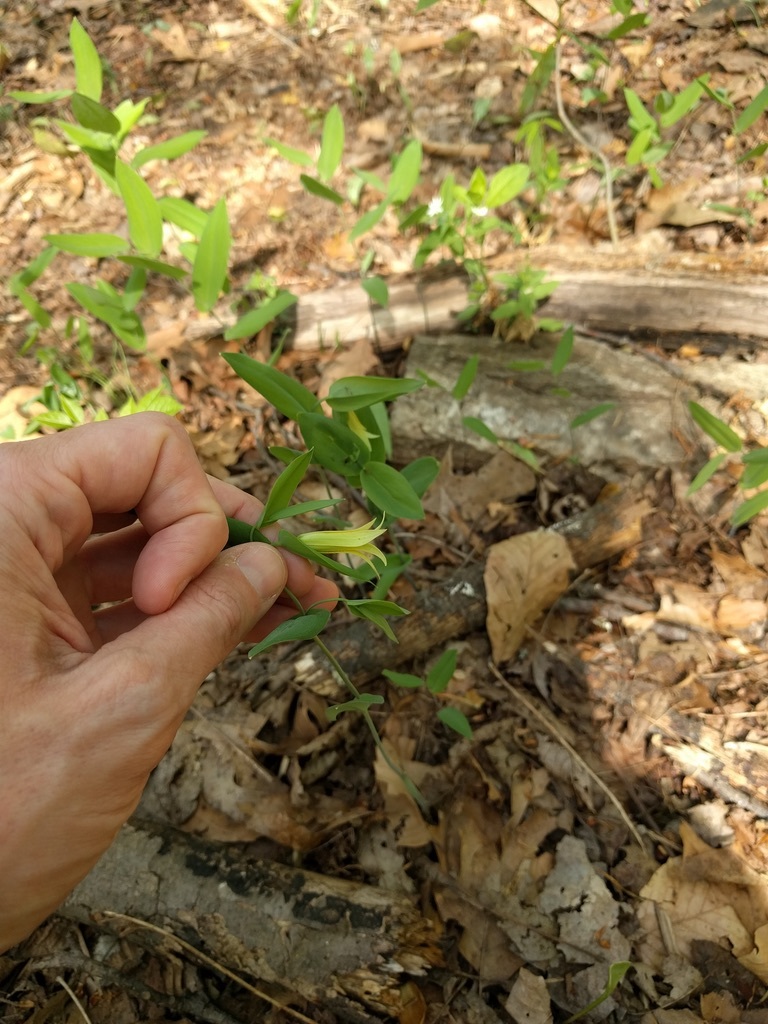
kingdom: Plantae
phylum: Tracheophyta
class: Liliopsida
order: Liliales
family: Colchicaceae
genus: Uvularia
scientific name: Uvularia perfoliata
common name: Perfoliate bellwort
